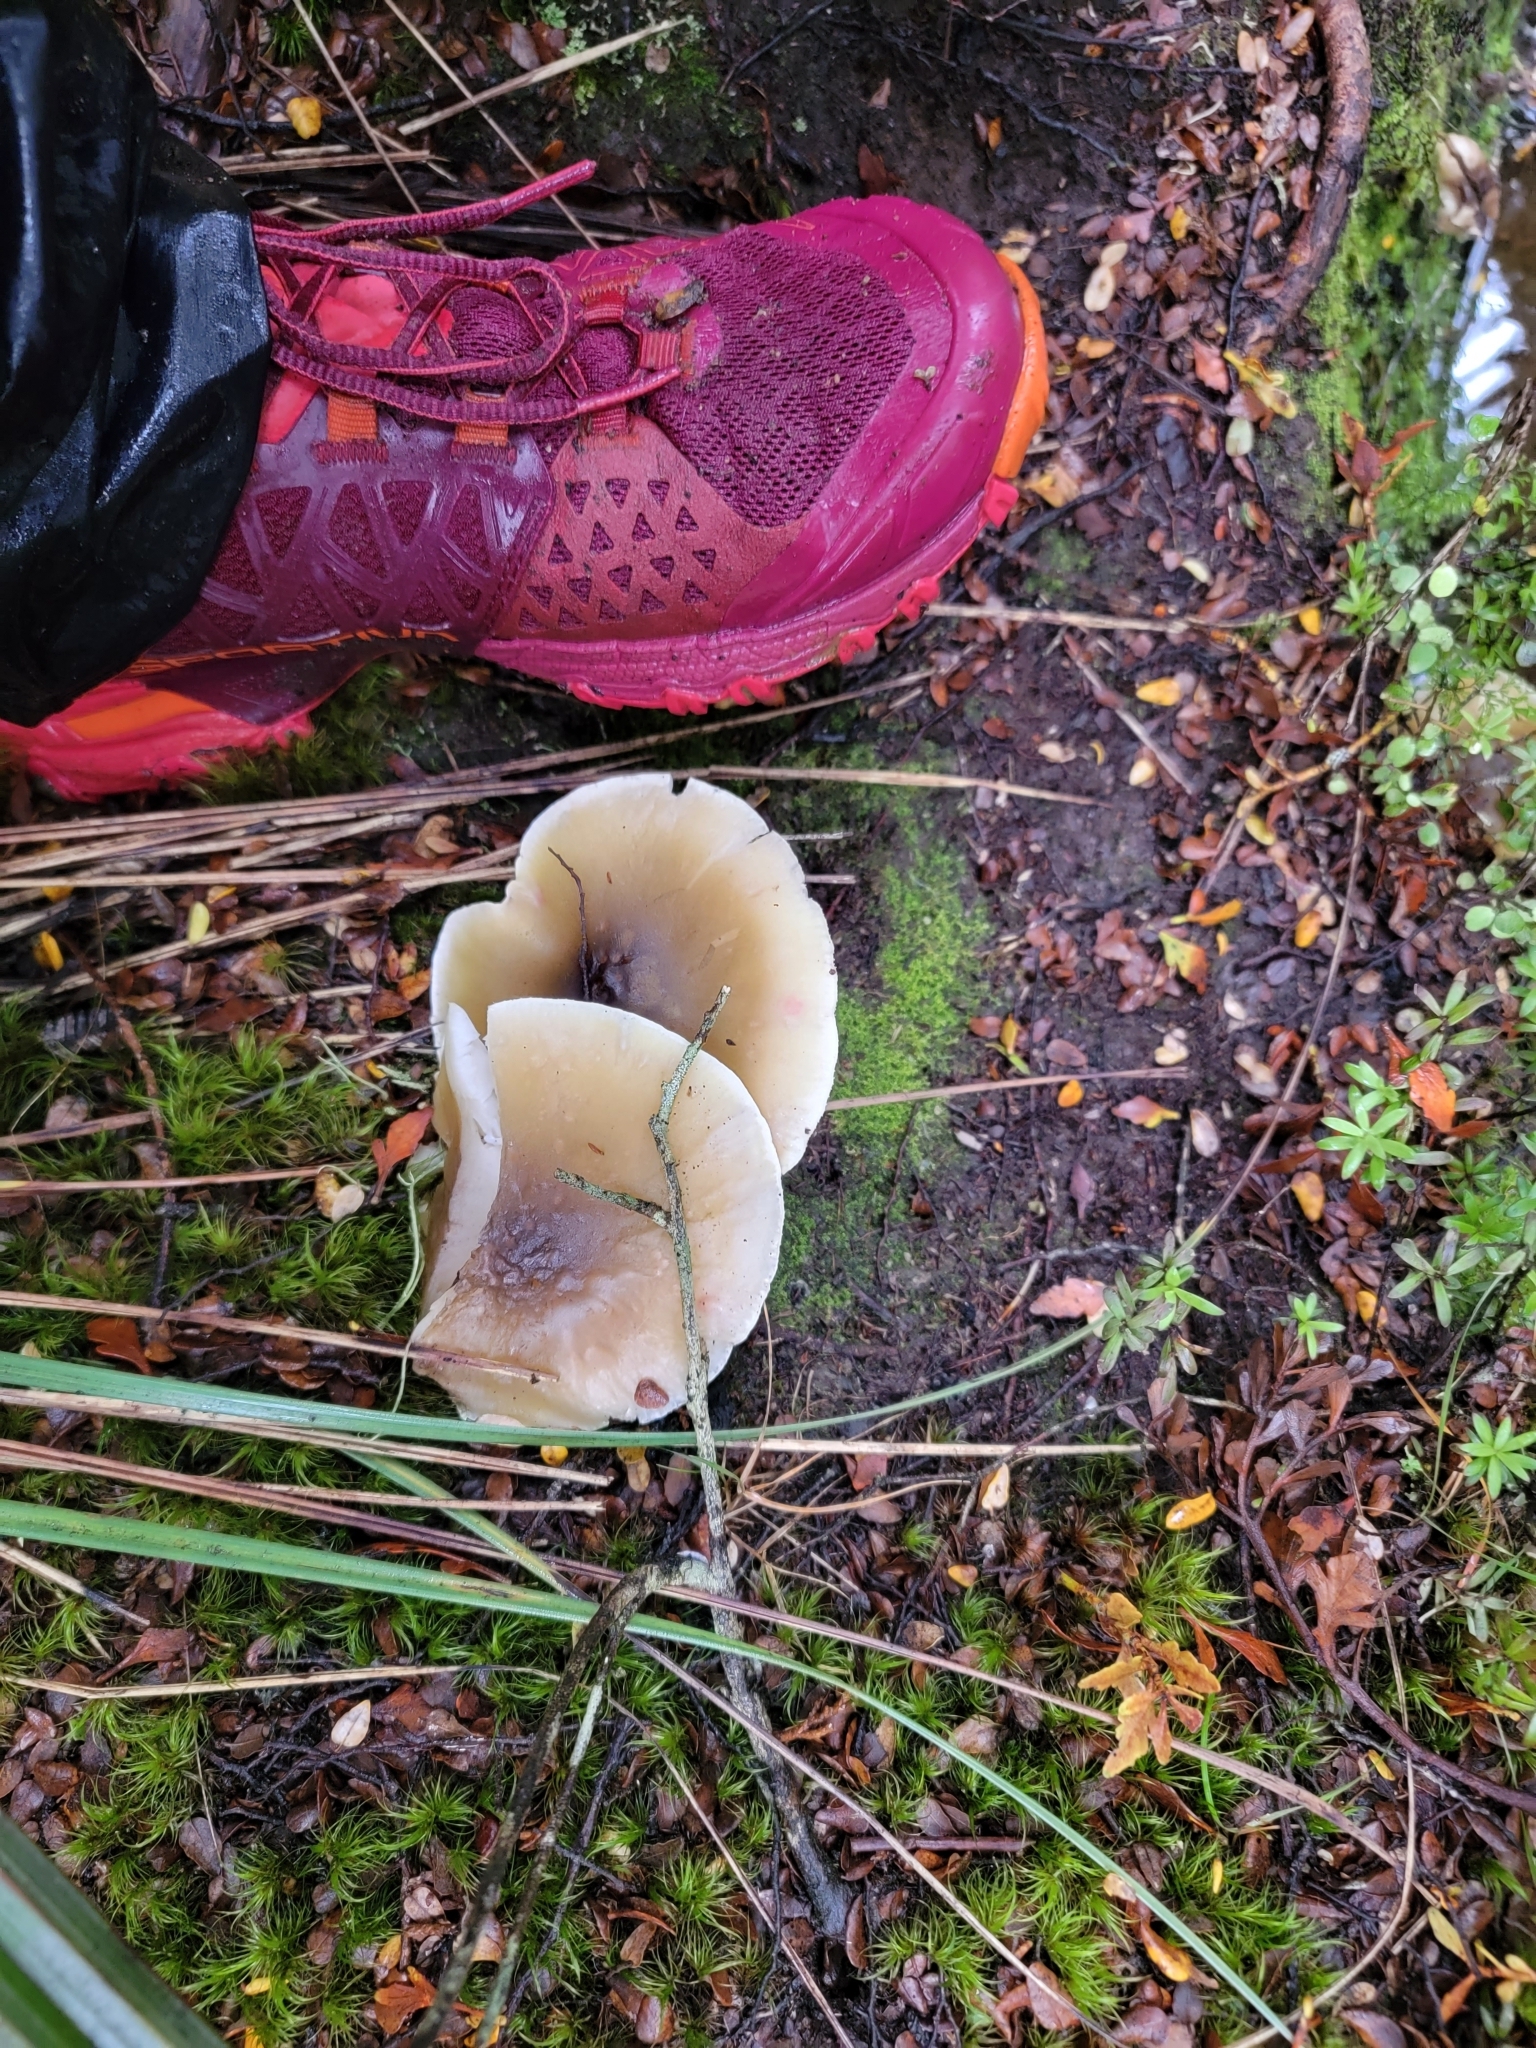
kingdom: Fungi
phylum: Basidiomycota
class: Agaricomycetes
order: Agaricales
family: Tricholomataceae
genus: Tricholoma
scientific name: Tricholoma viridiolivaceum
